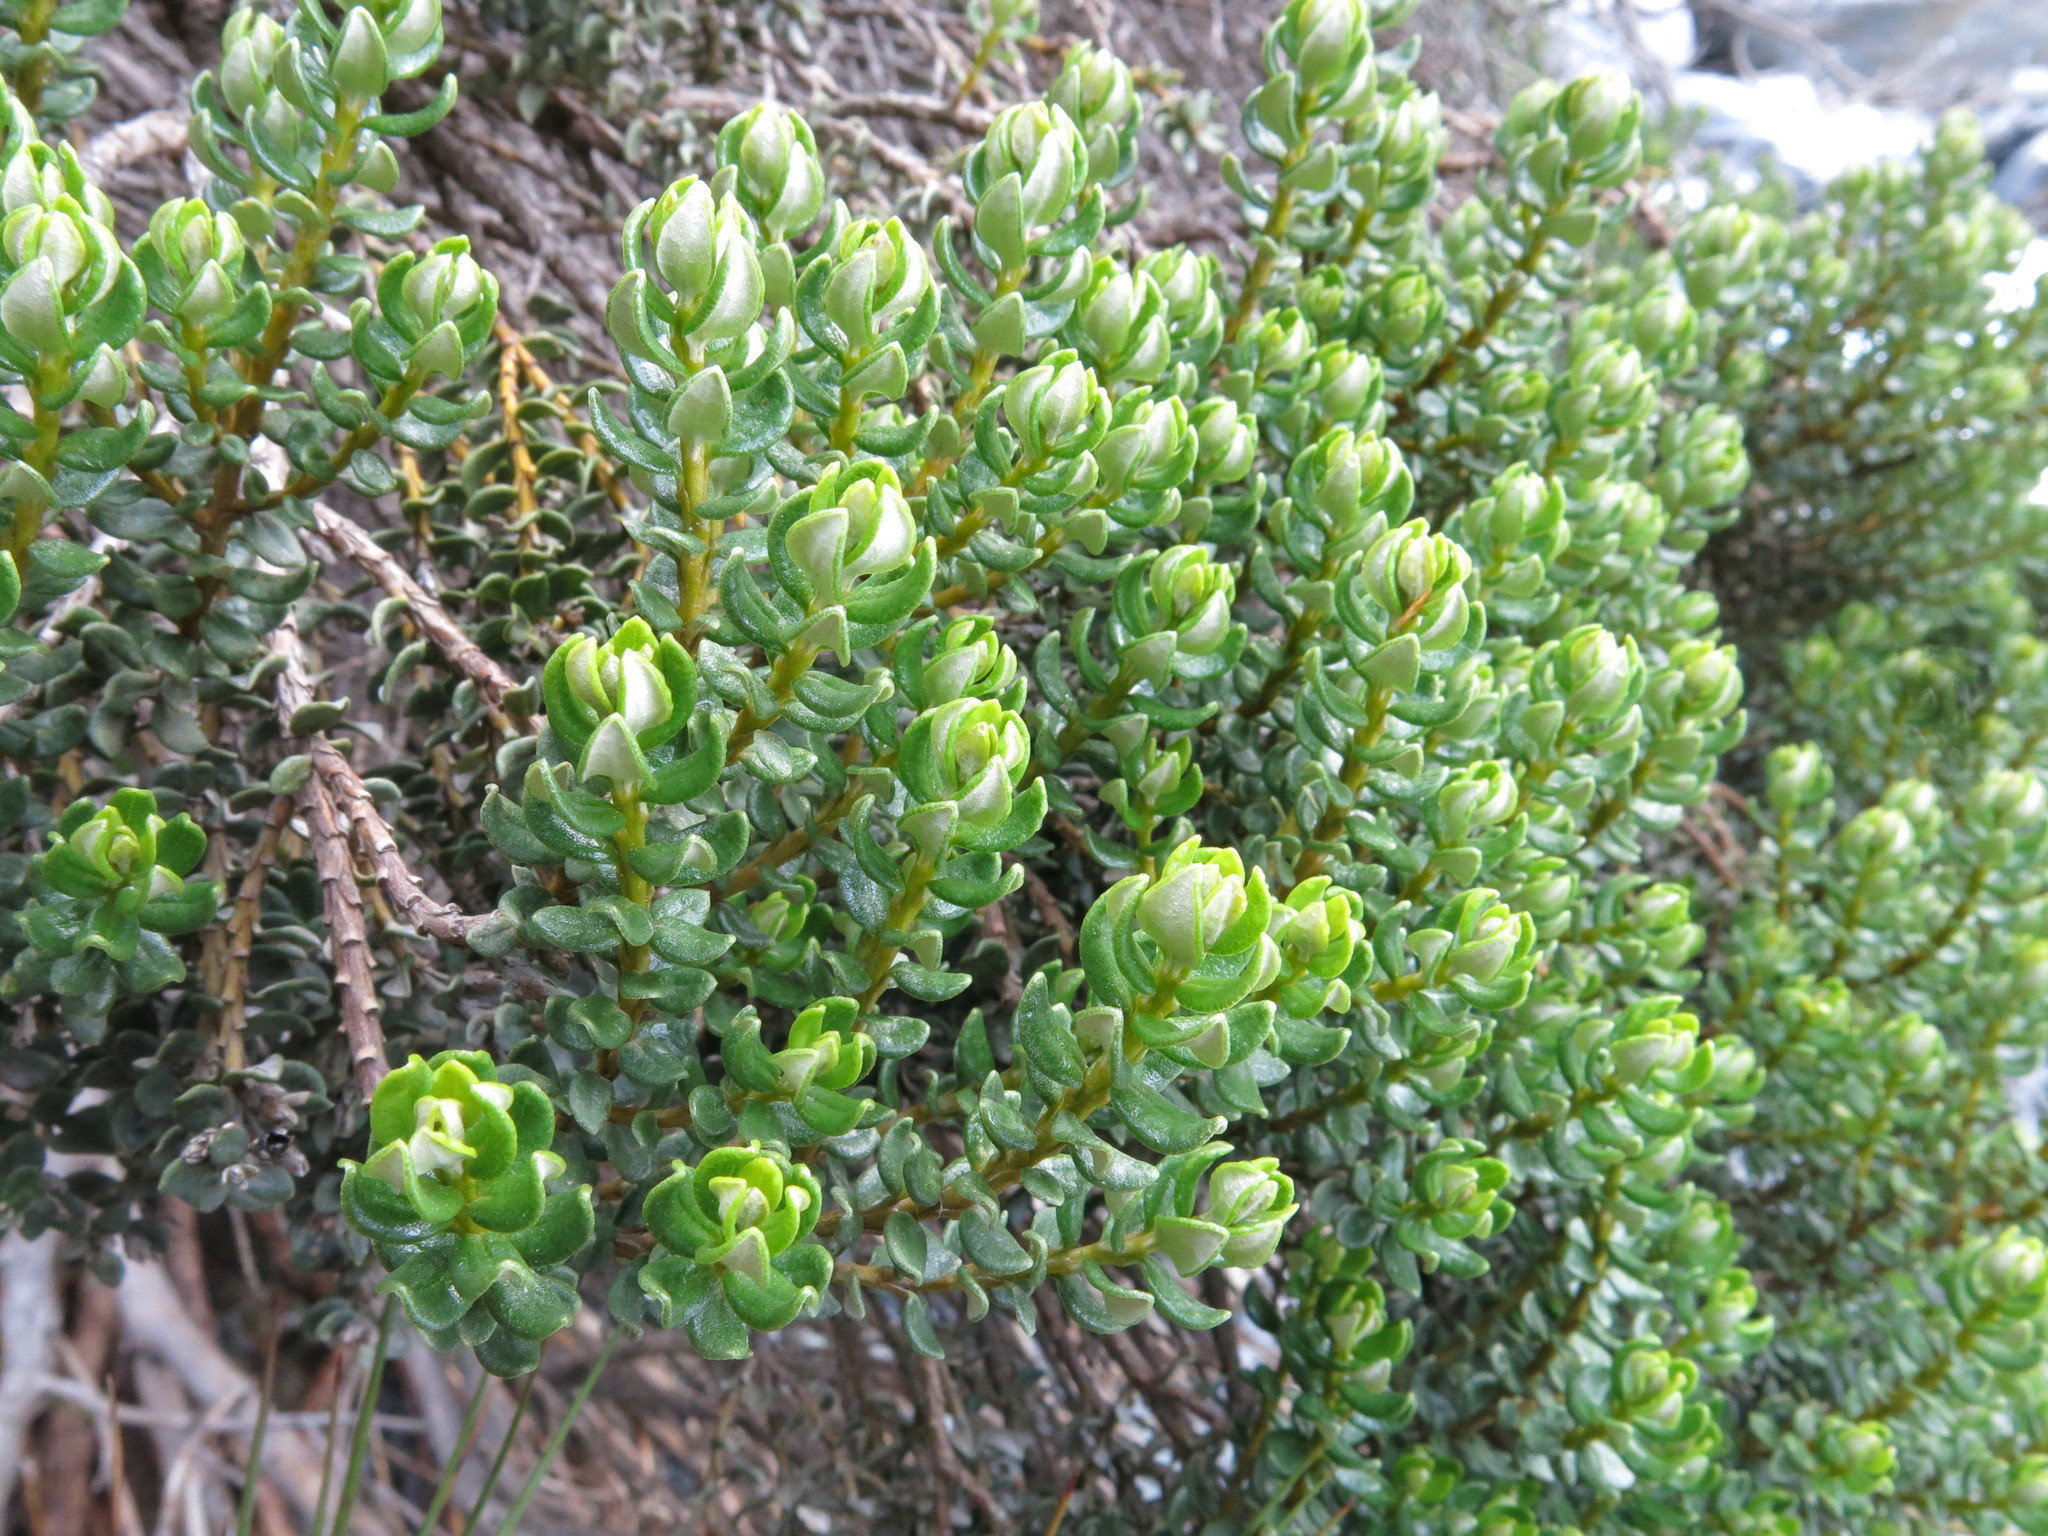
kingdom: Plantae
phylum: Tracheophyta
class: Magnoliopsida
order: Asterales
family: Asteraceae
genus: Olearia
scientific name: Olearia nummularifolia
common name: Sticky daisybush
